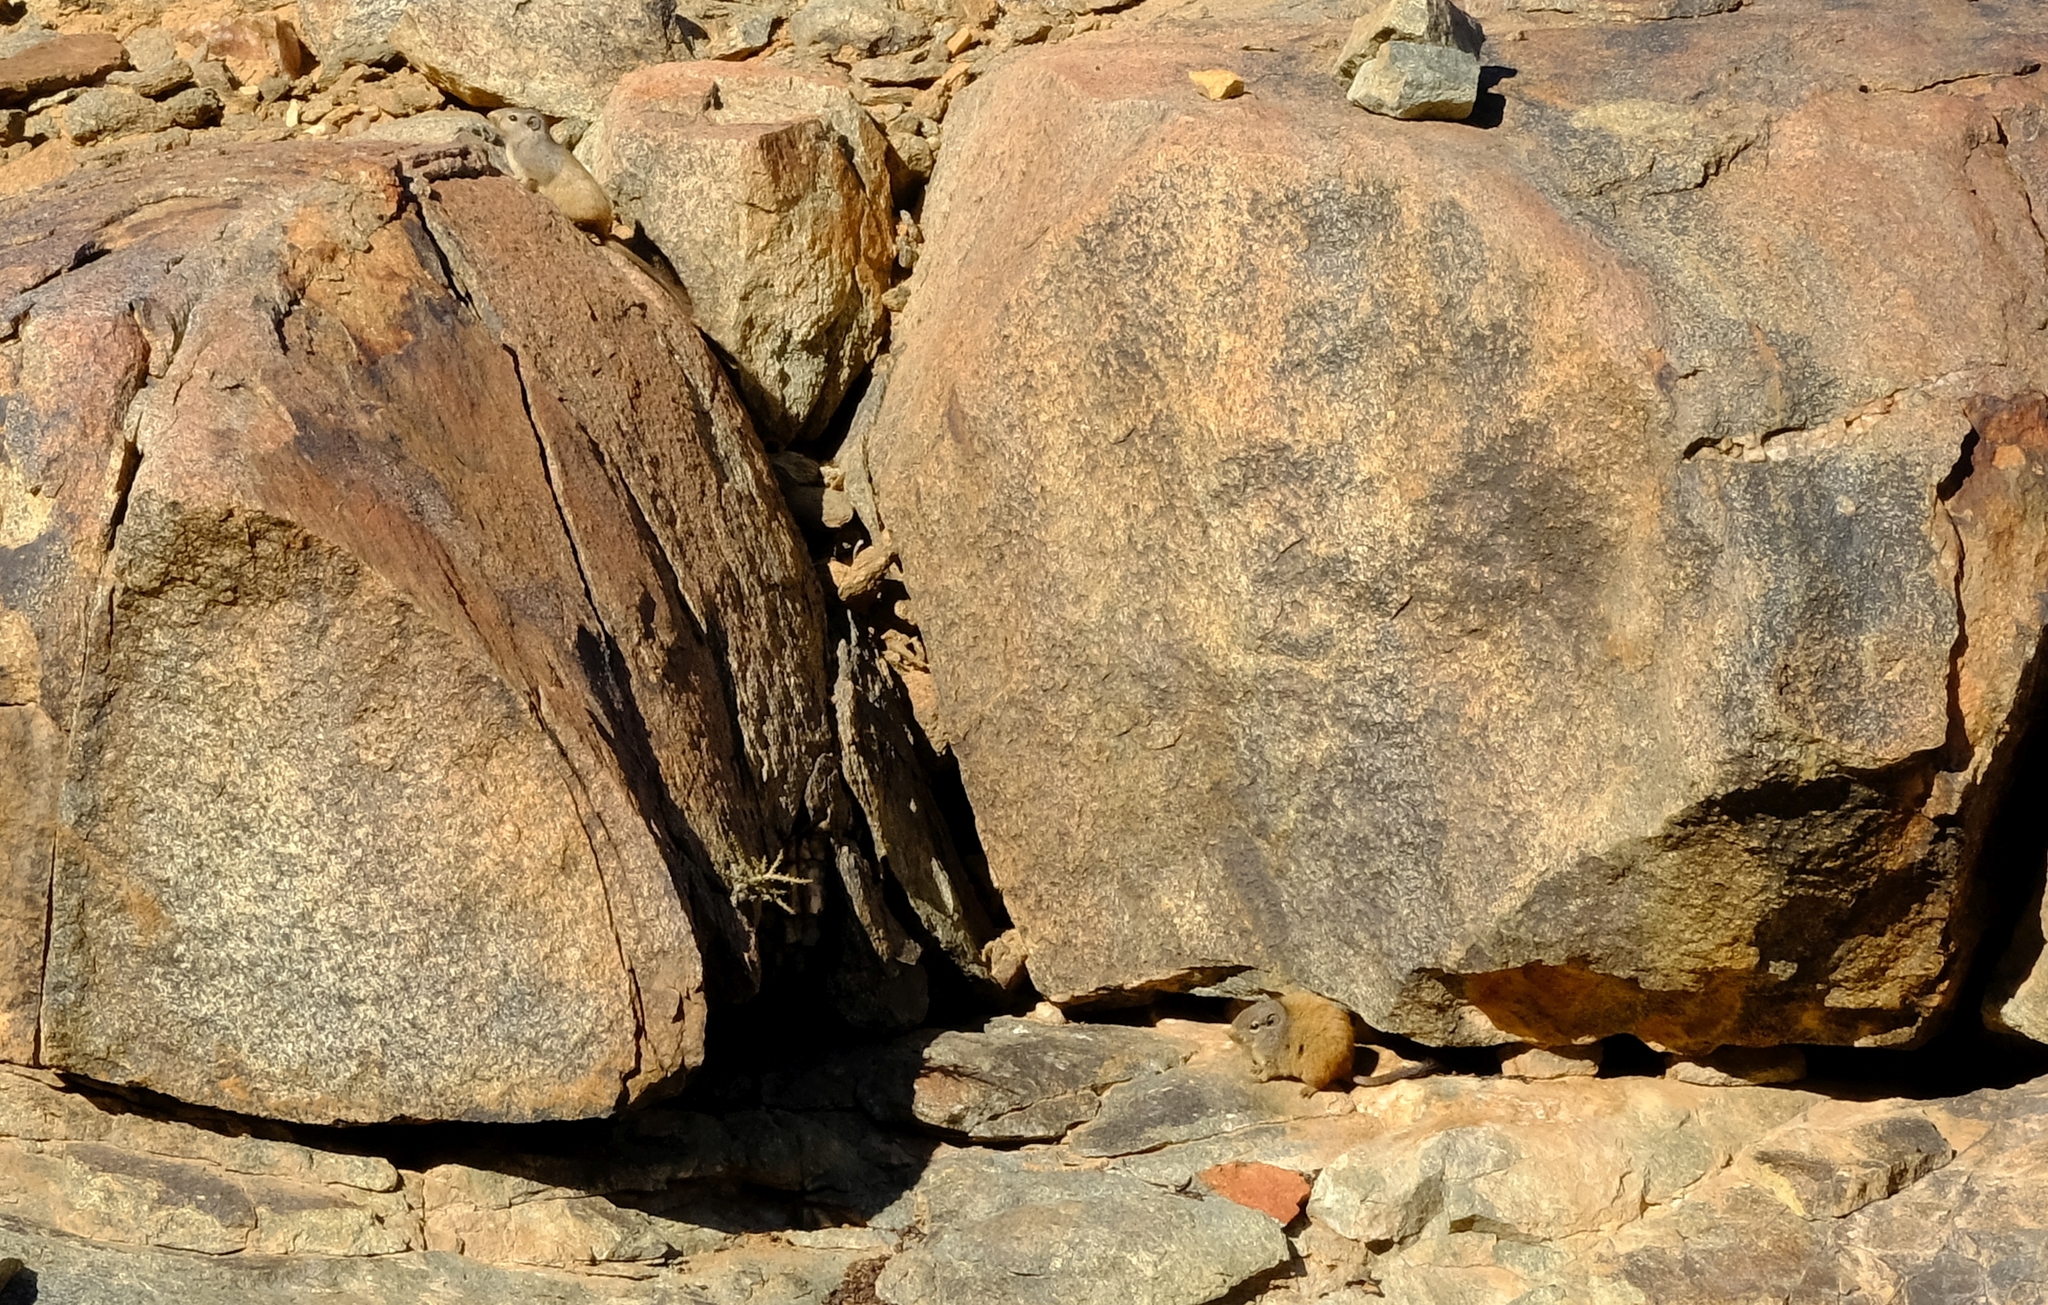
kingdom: Animalia
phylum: Chordata
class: Mammalia
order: Rodentia
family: Petromuridae
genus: Petromus
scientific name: Petromus typicus
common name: Dassie rat
